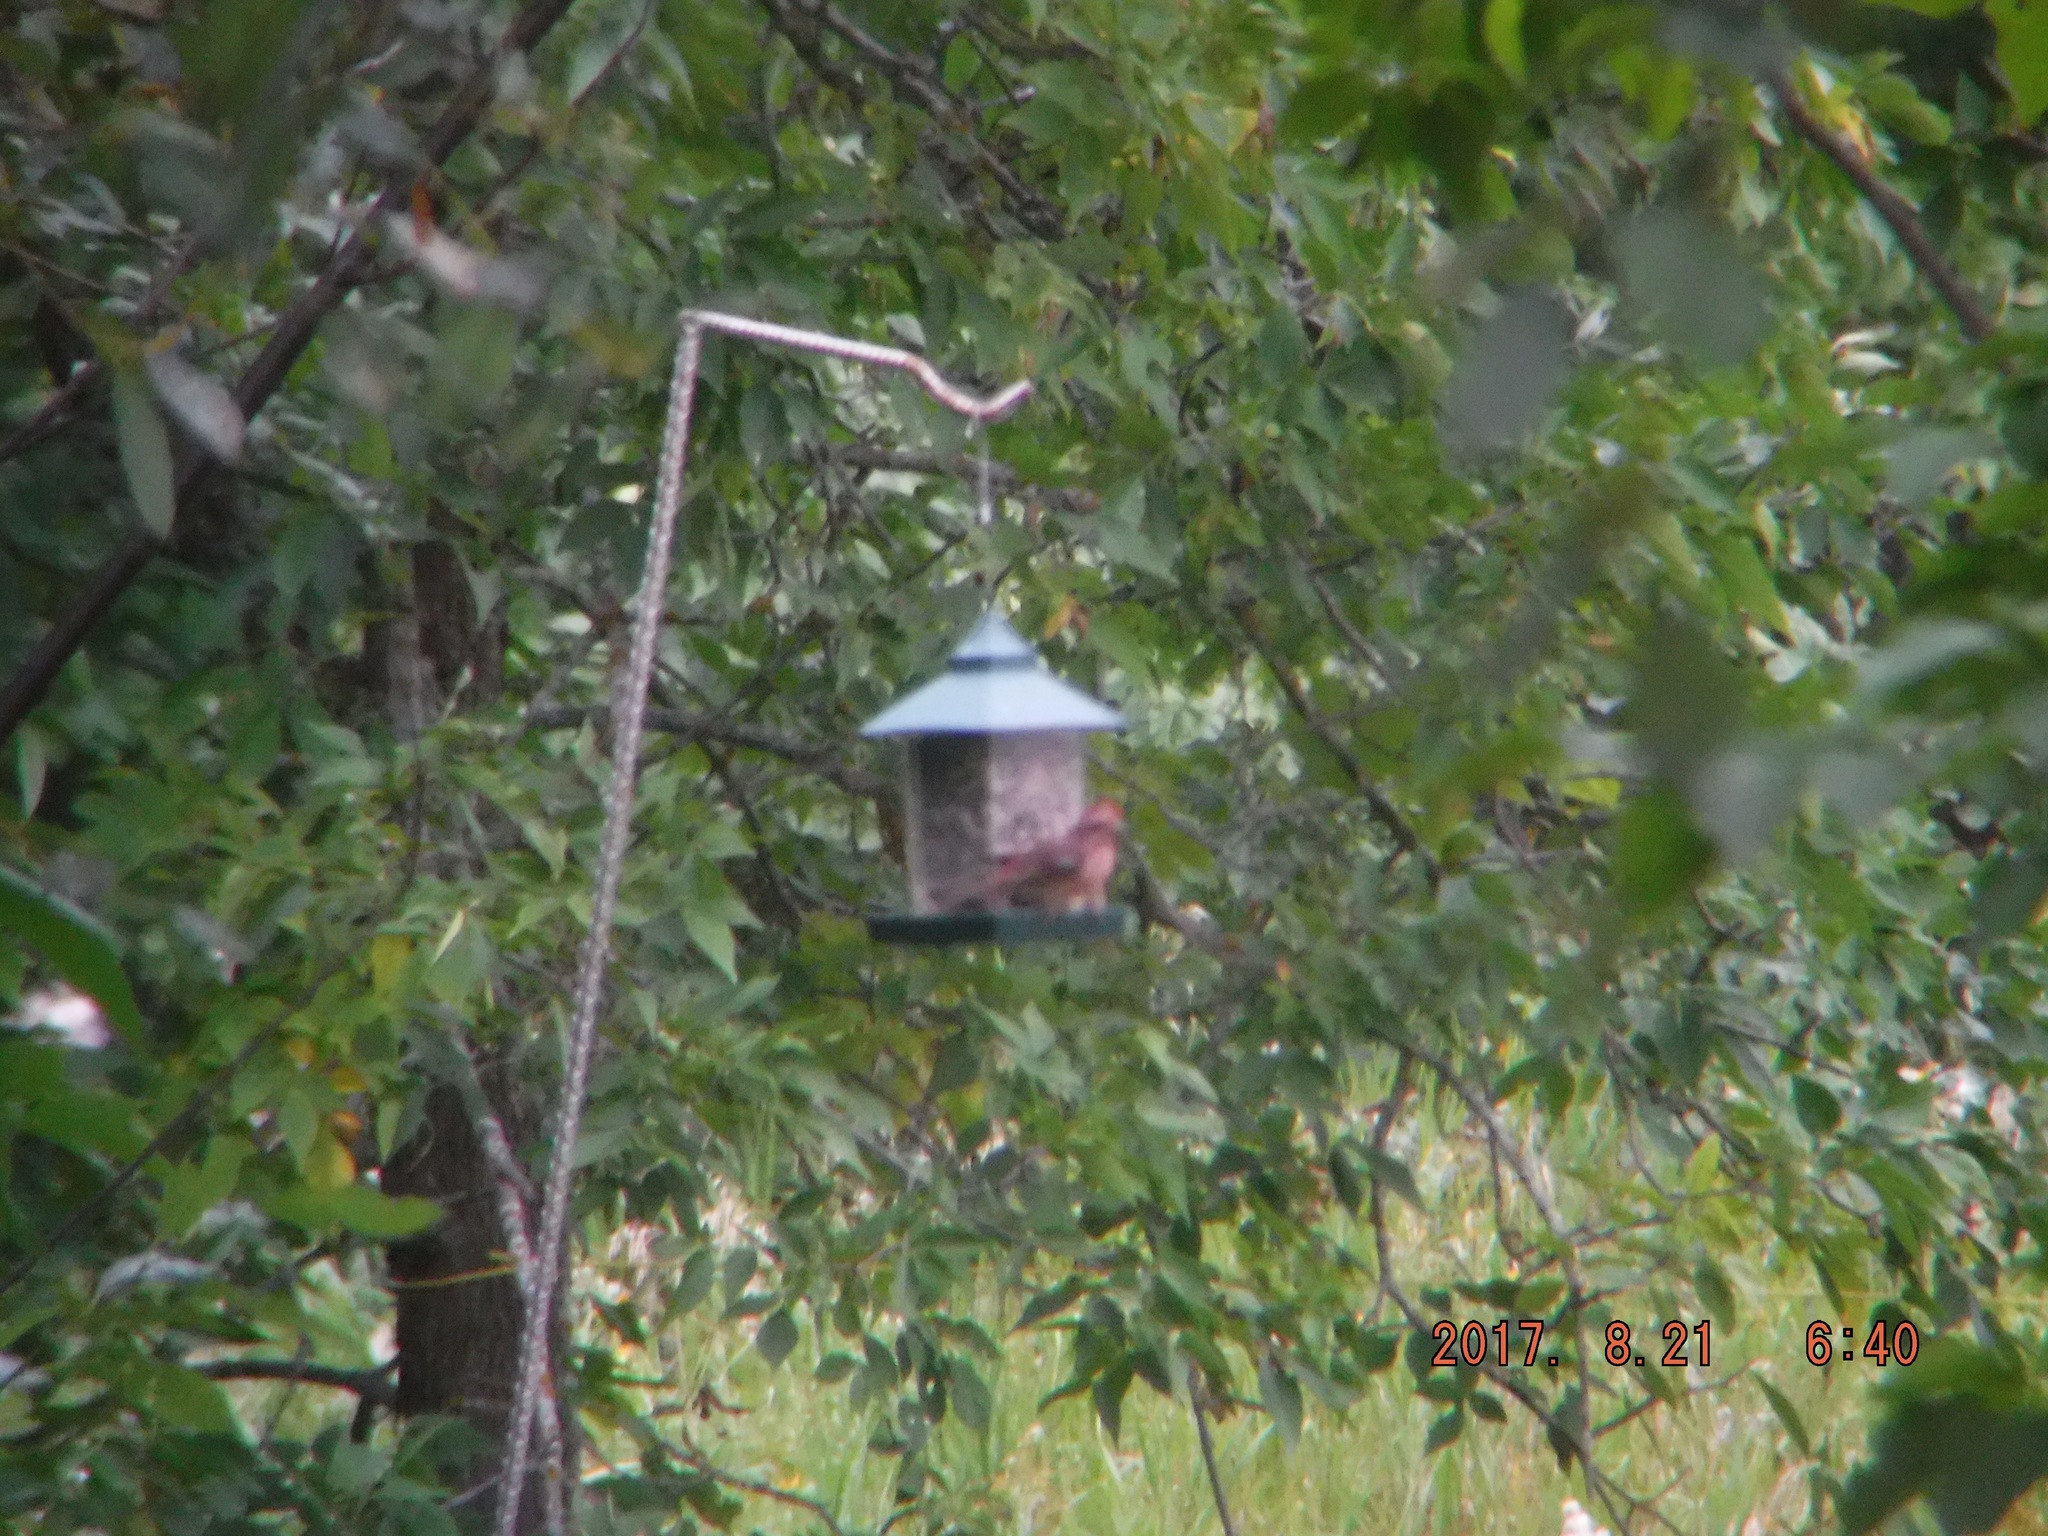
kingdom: Animalia
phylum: Chordata
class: Aves
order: Passeriformes
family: Fringillidae
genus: Haemorhous
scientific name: Haemorhous purpureus
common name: Purple finch
